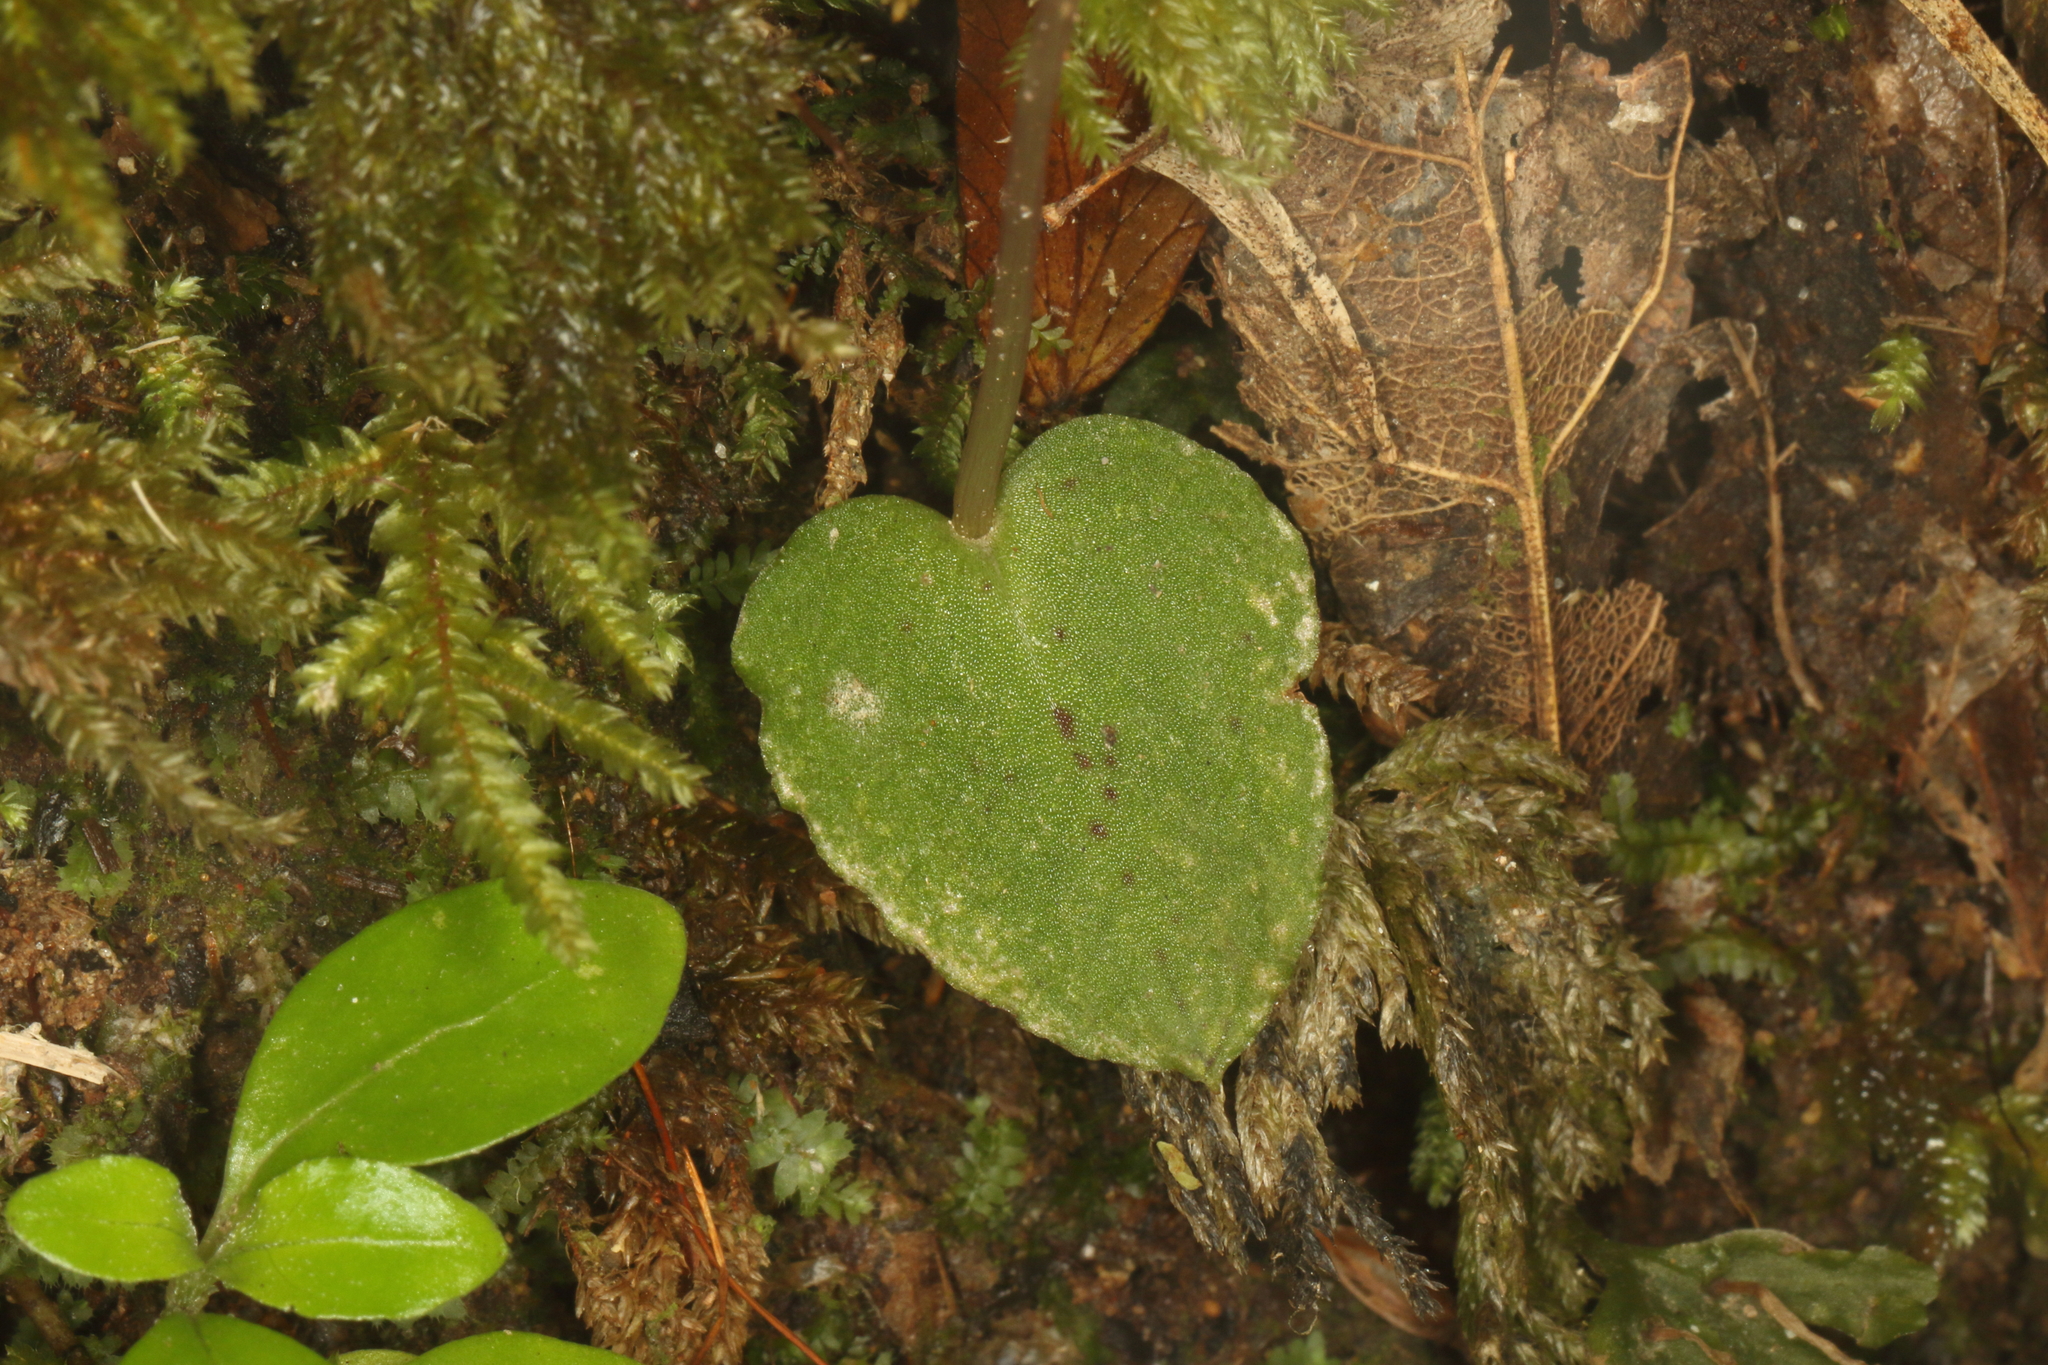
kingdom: Plantae
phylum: Tracheophyta
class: Liliopsida
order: Asparagales
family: Orchidaceae
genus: Corybas
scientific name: Corybas oblongus
